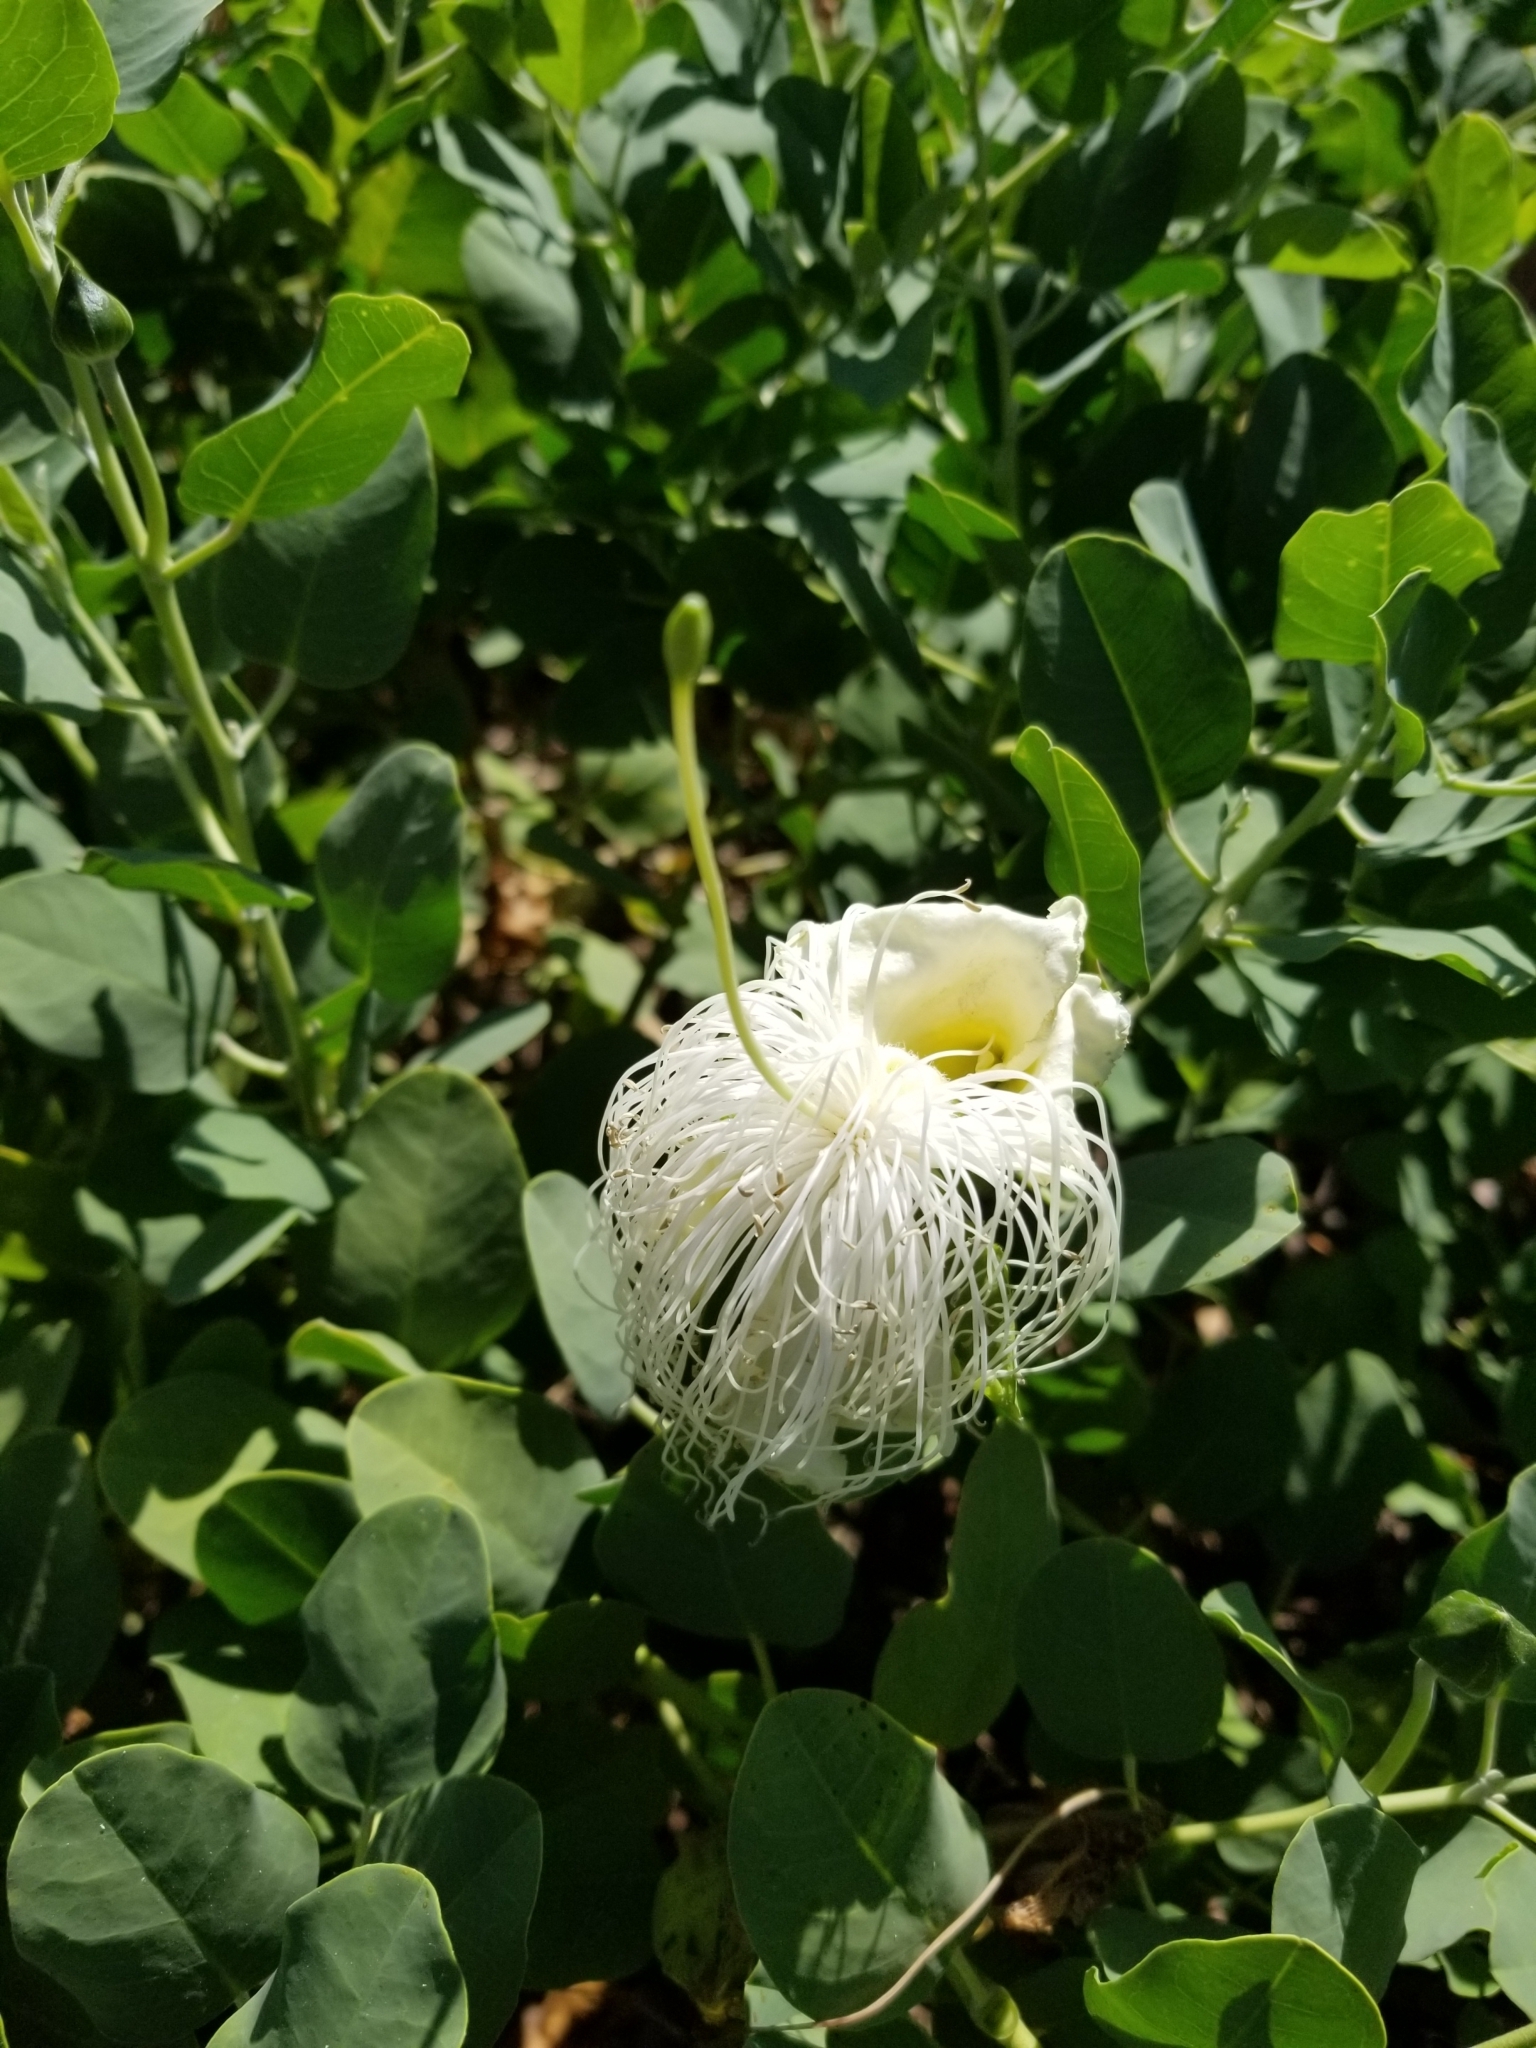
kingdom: Plantae
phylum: Tracheophyta
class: Magnoliopsida
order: Brassicales
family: Capparaceae
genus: Capparis
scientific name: Capparis spinosa
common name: Caper
